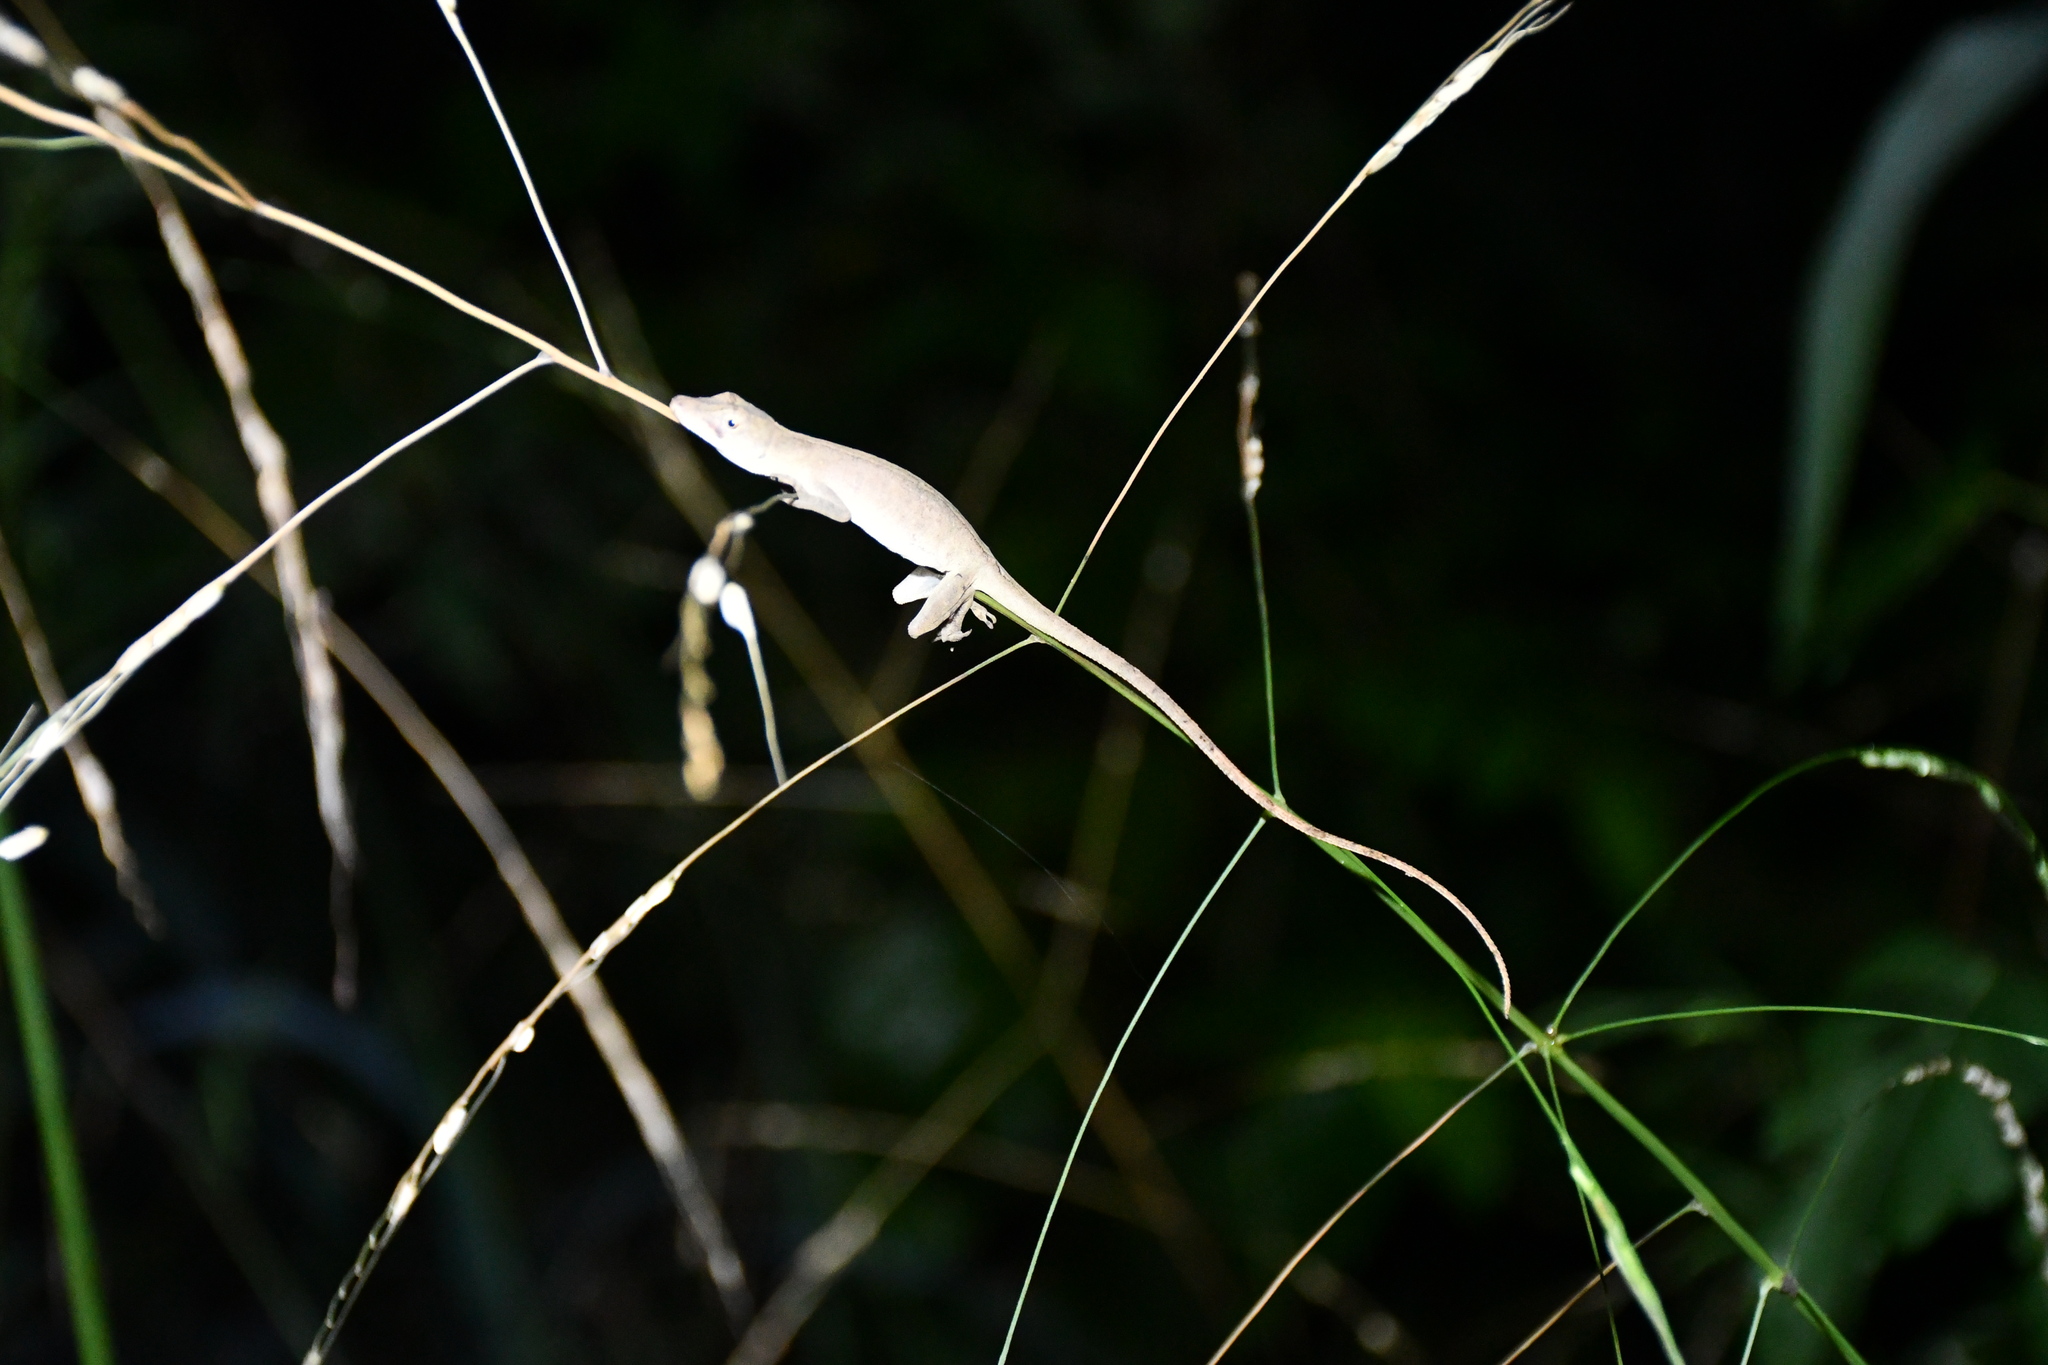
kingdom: Animalia
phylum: Chordata
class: Squamata
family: Dactyloidae
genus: Anolis
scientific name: Anolis fuscoauratus
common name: Brown-eared anole
